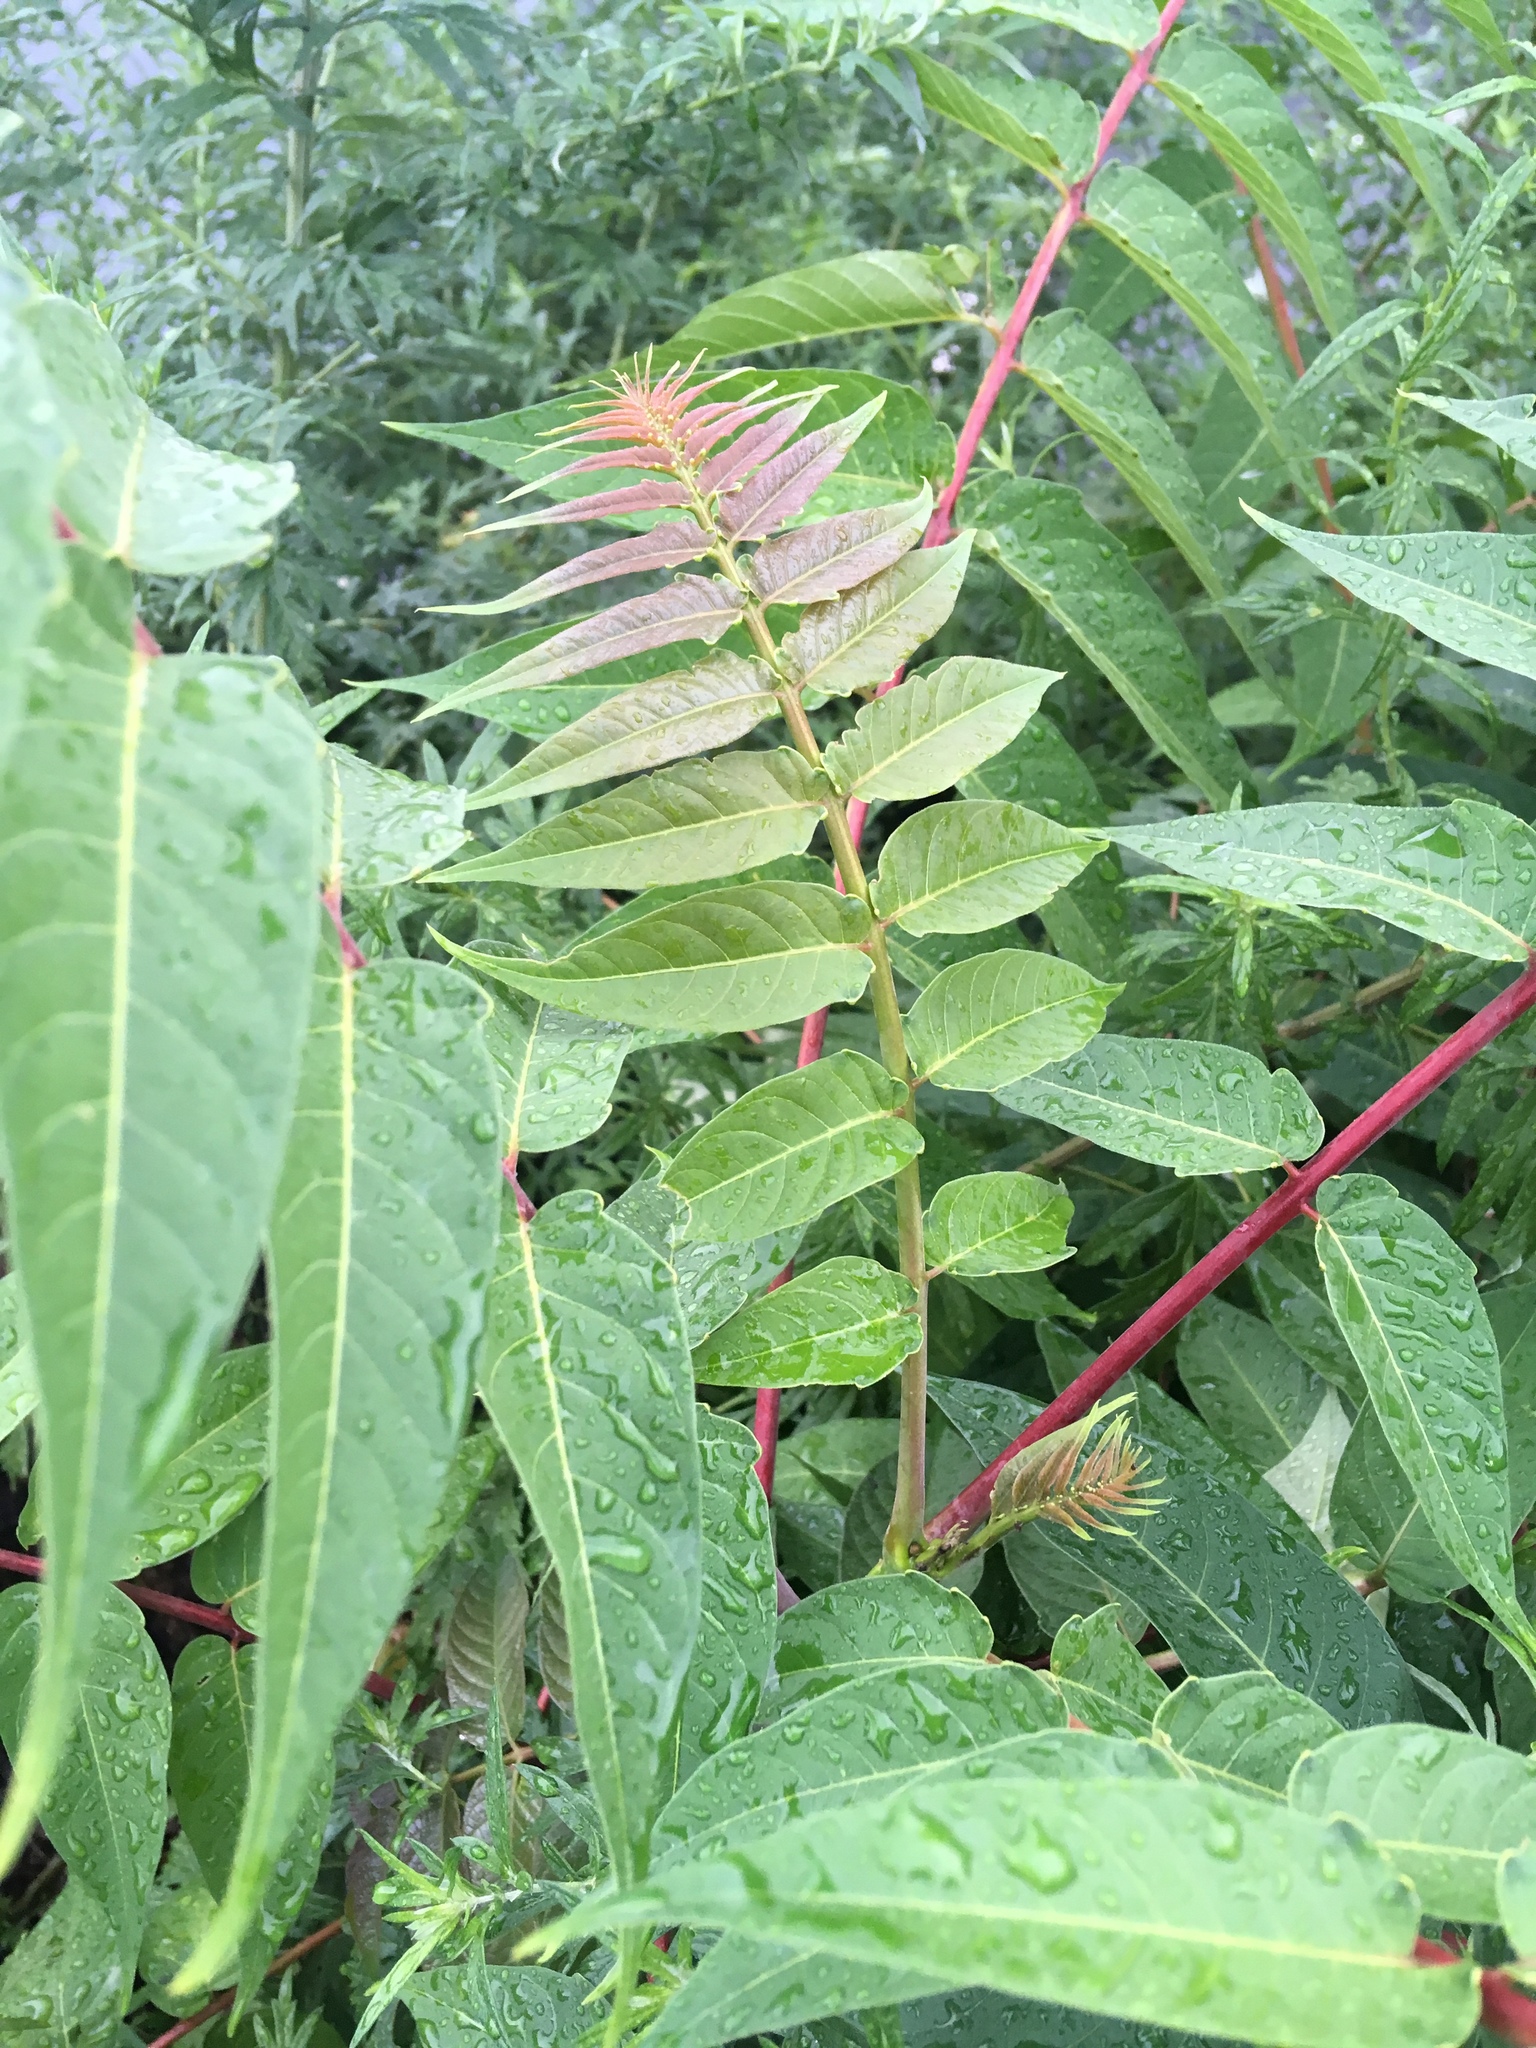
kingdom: Plantae
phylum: Tracheophyta
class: Magnoliopsida
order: Sapindales
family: Simaroubaceae
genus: Ailanthus
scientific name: Ailanthus altissima
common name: Tree-of-heaven
